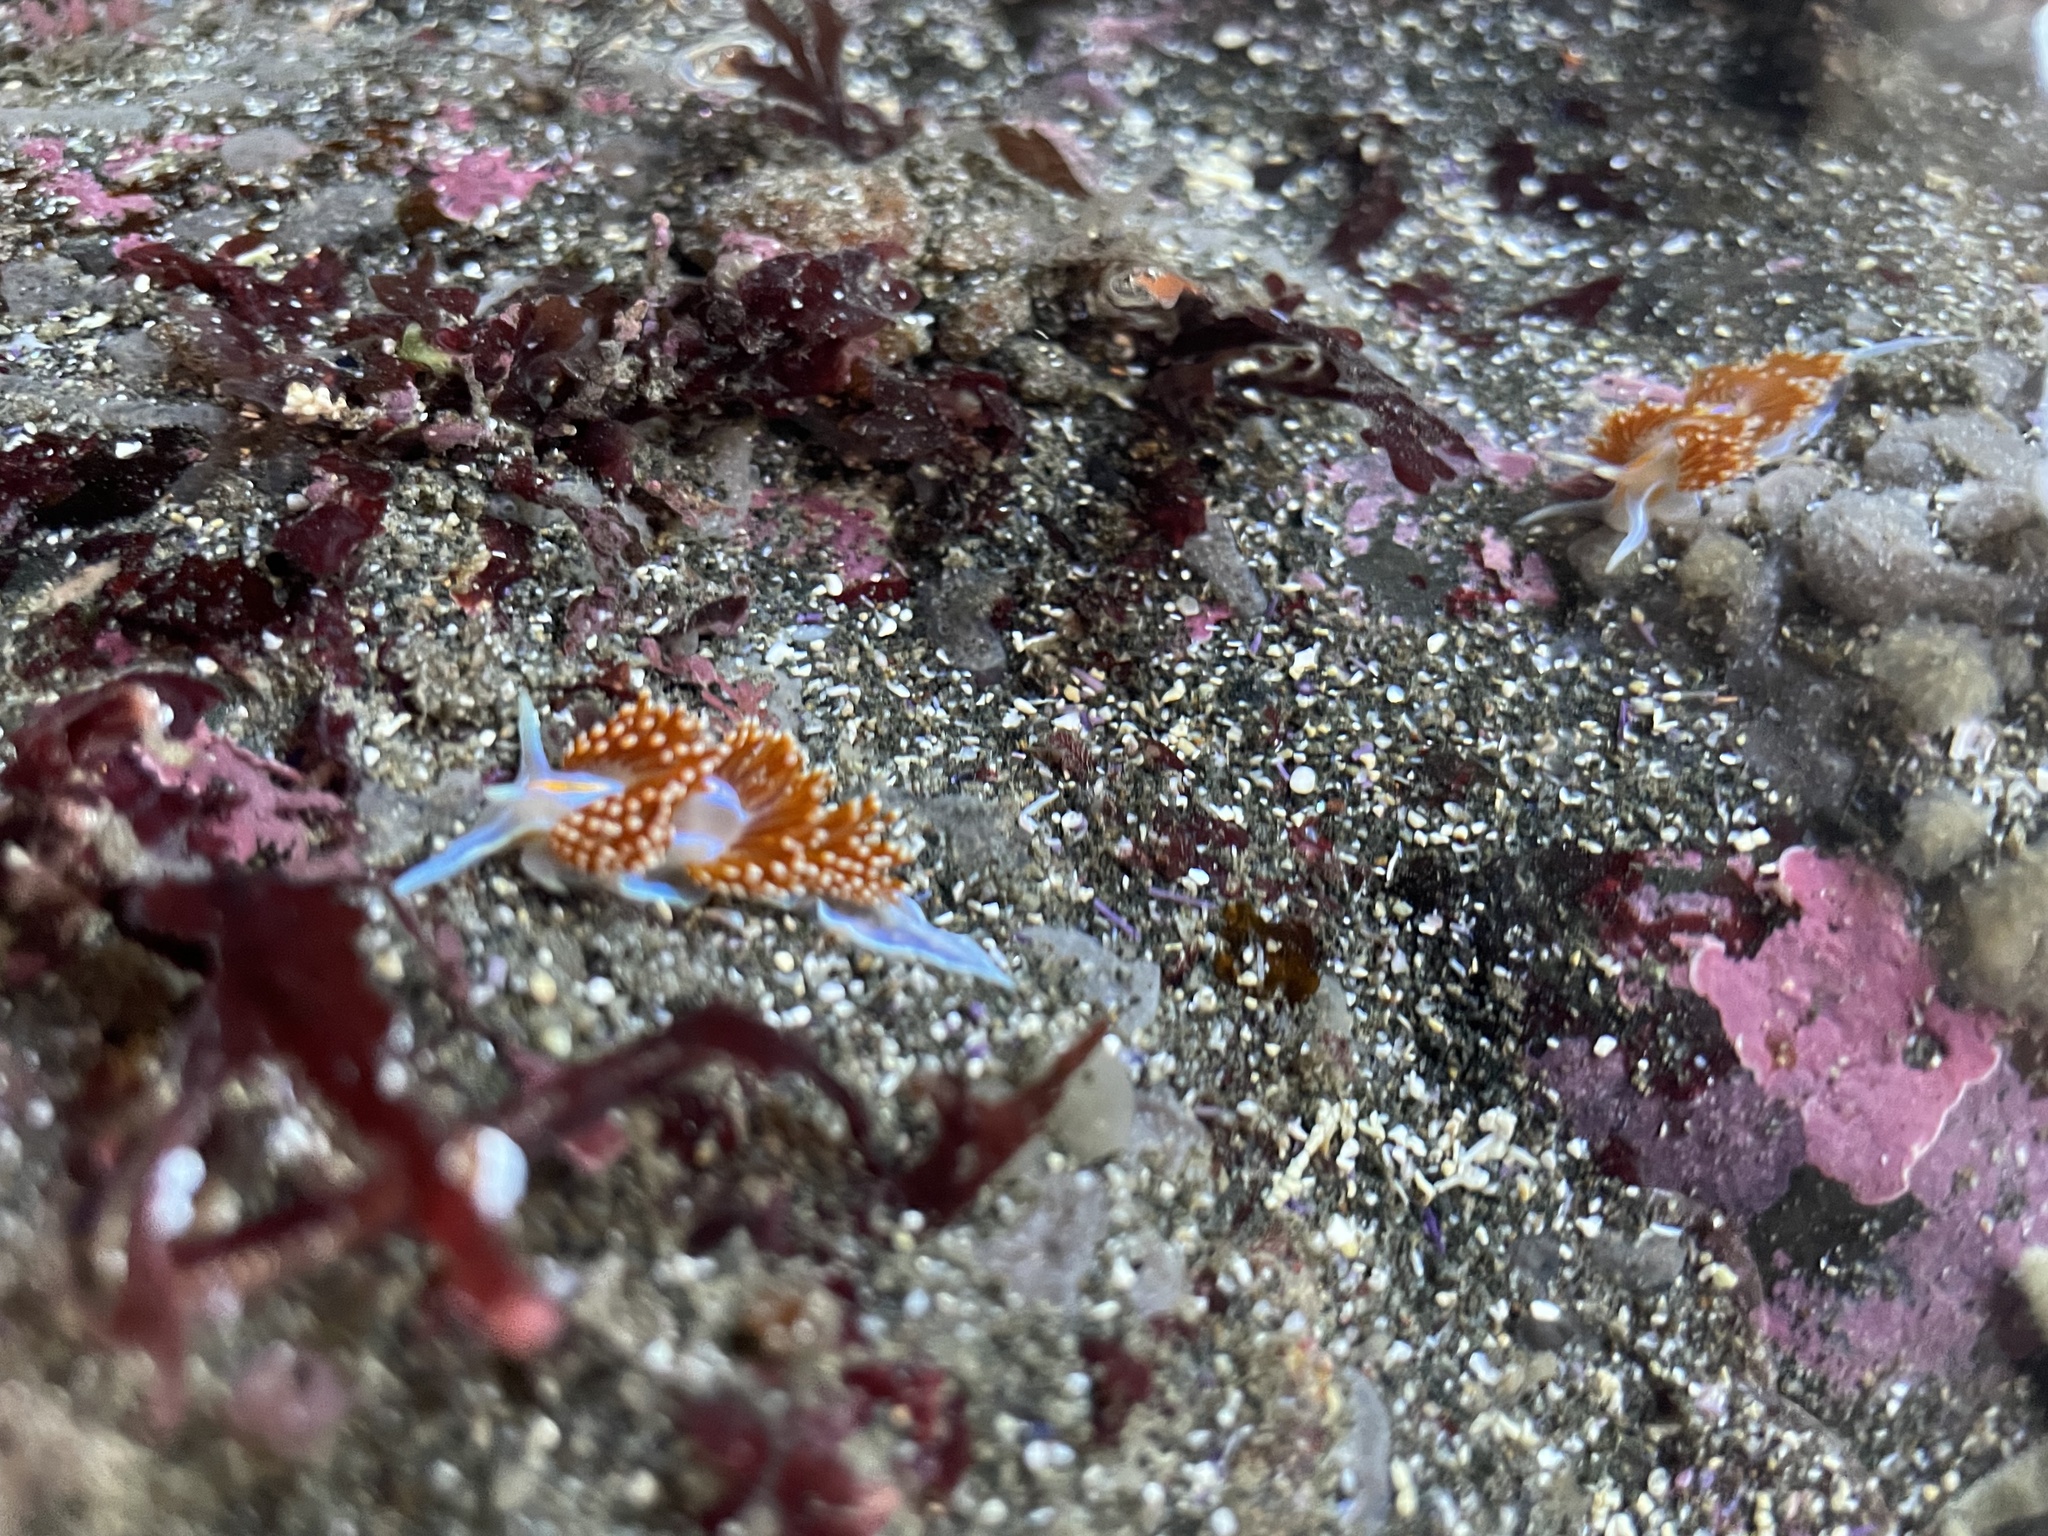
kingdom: Animalia
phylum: Mollusca
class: Gastropoda
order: Nudibranchia
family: Myrrhinidae
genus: Hermissenda
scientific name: Hermissenda opalescens
